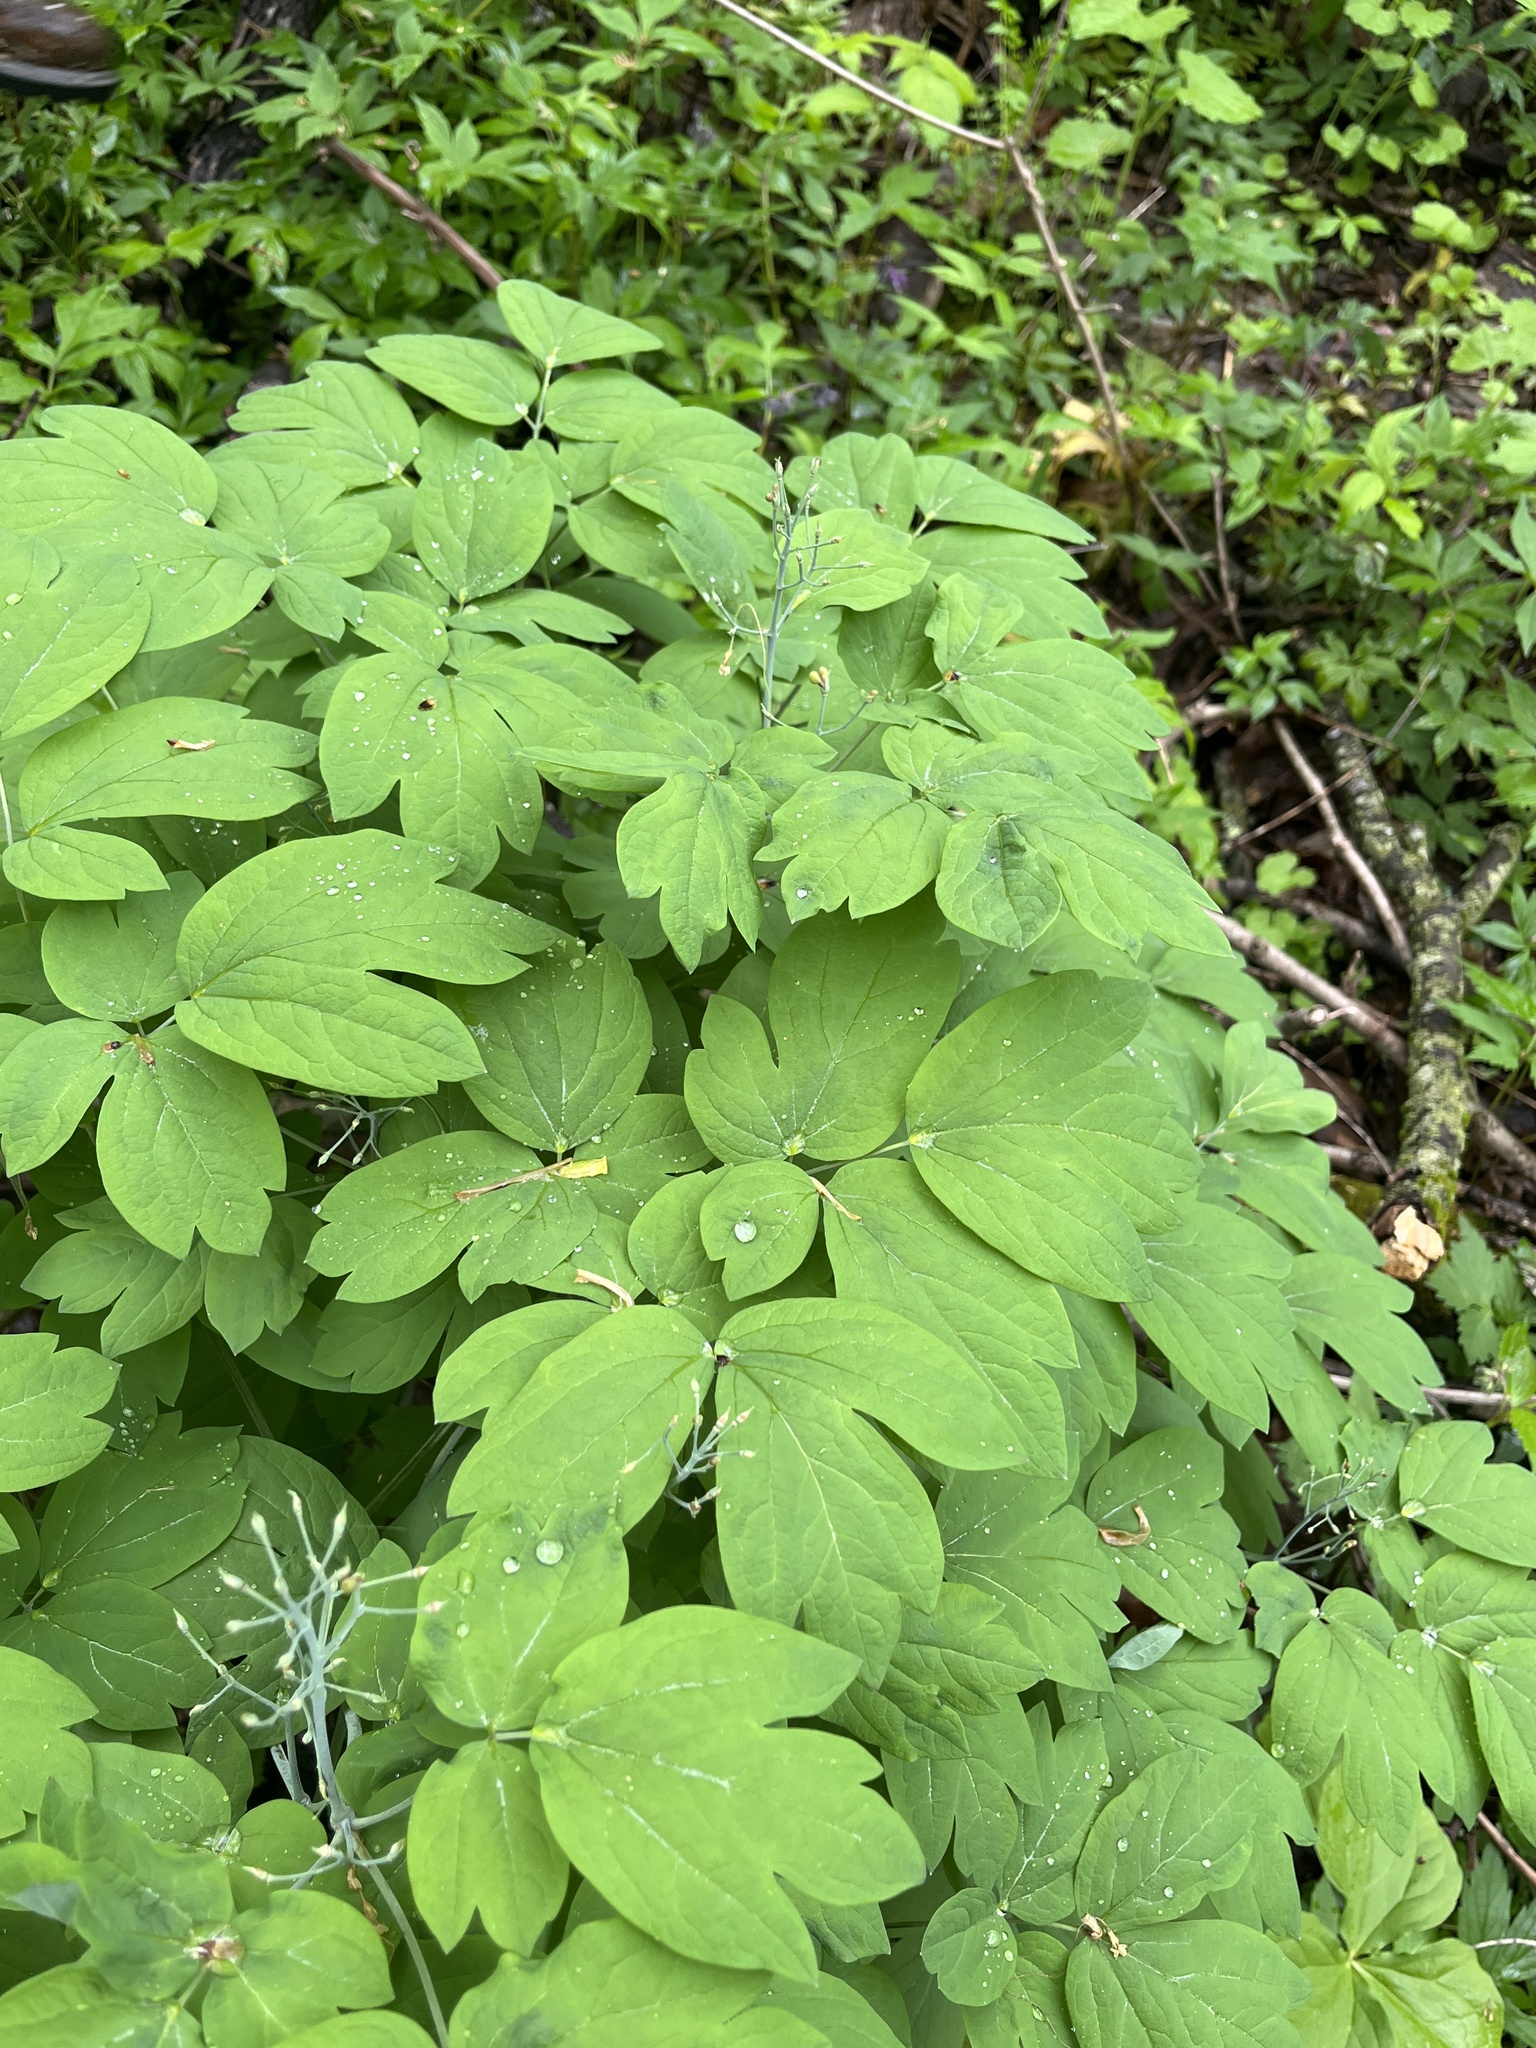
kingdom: Plantae
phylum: Tracheophyta
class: Magnoliopsida
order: Ranunculales
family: Berberidaceae
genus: Caulophyllum
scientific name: Caulophyllum giganteum
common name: Blue cohosh
